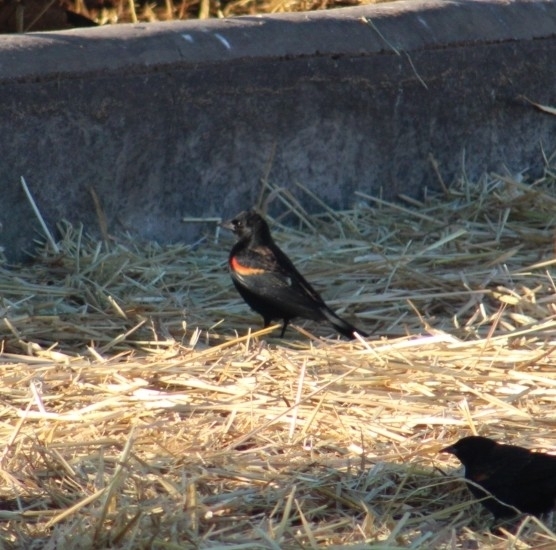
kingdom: Animalia
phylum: Chordata
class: Aves
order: Passeriformes
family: Icteridae
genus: Agelaius
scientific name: Agelaius phoeniceus
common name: Red-winged blackbird
